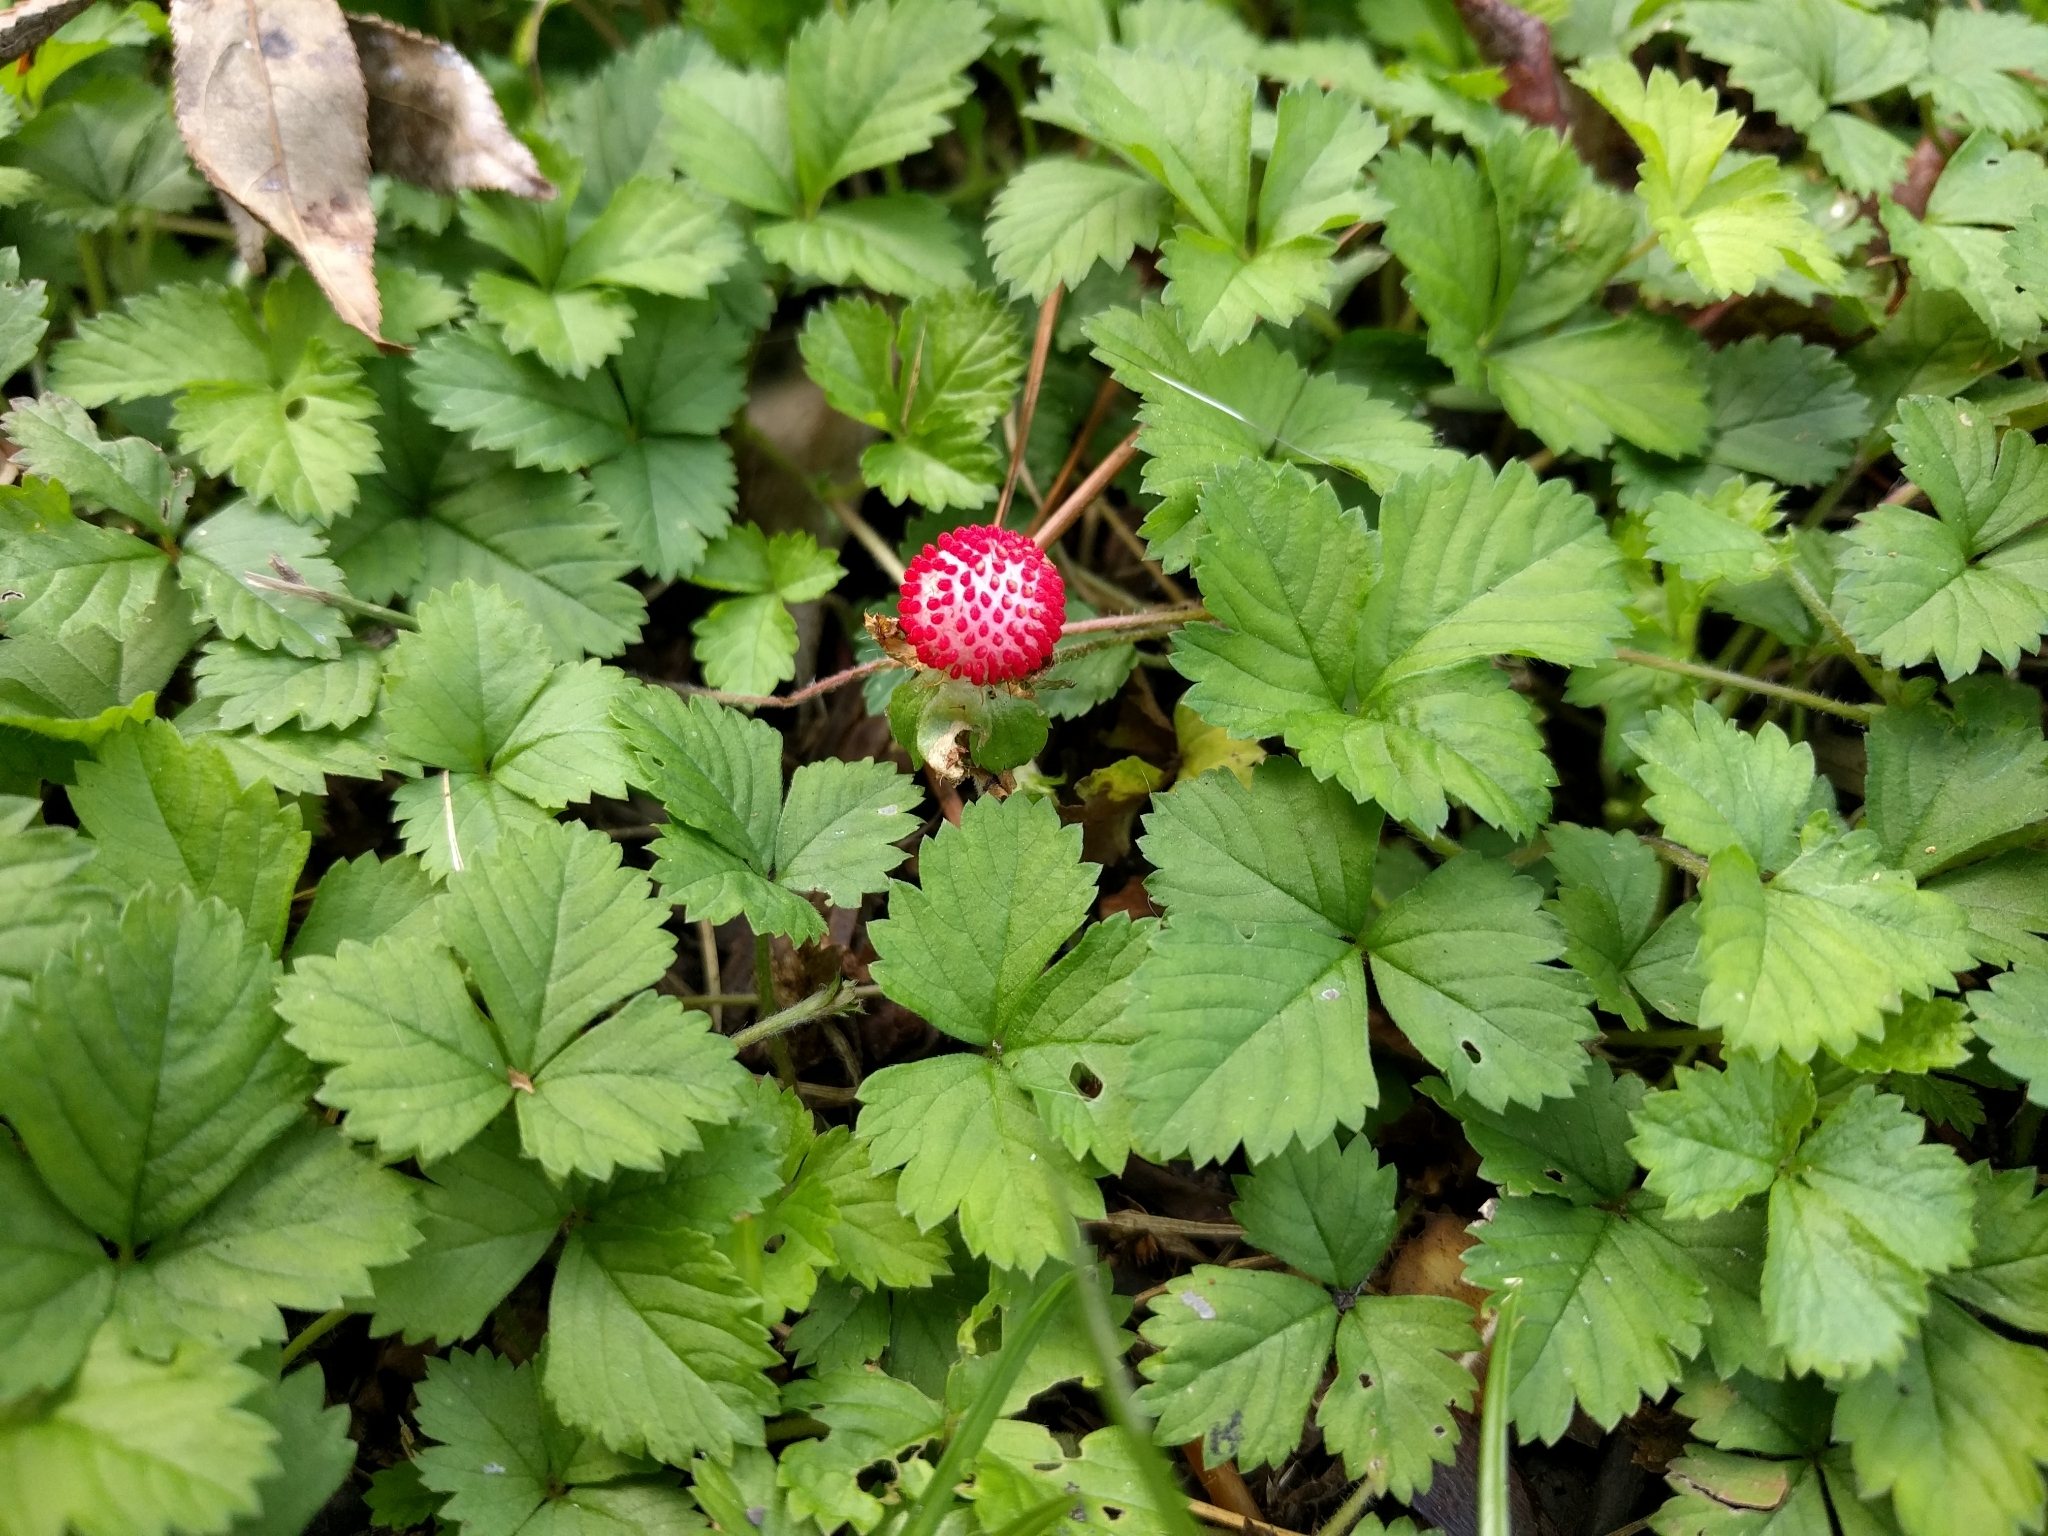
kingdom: Plantae
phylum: Tracheophyta
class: Magnoliopsida
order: Rosales
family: Rosaceae
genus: Potentilla
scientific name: Potentilla indica
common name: Yellow-flowered strawberry
